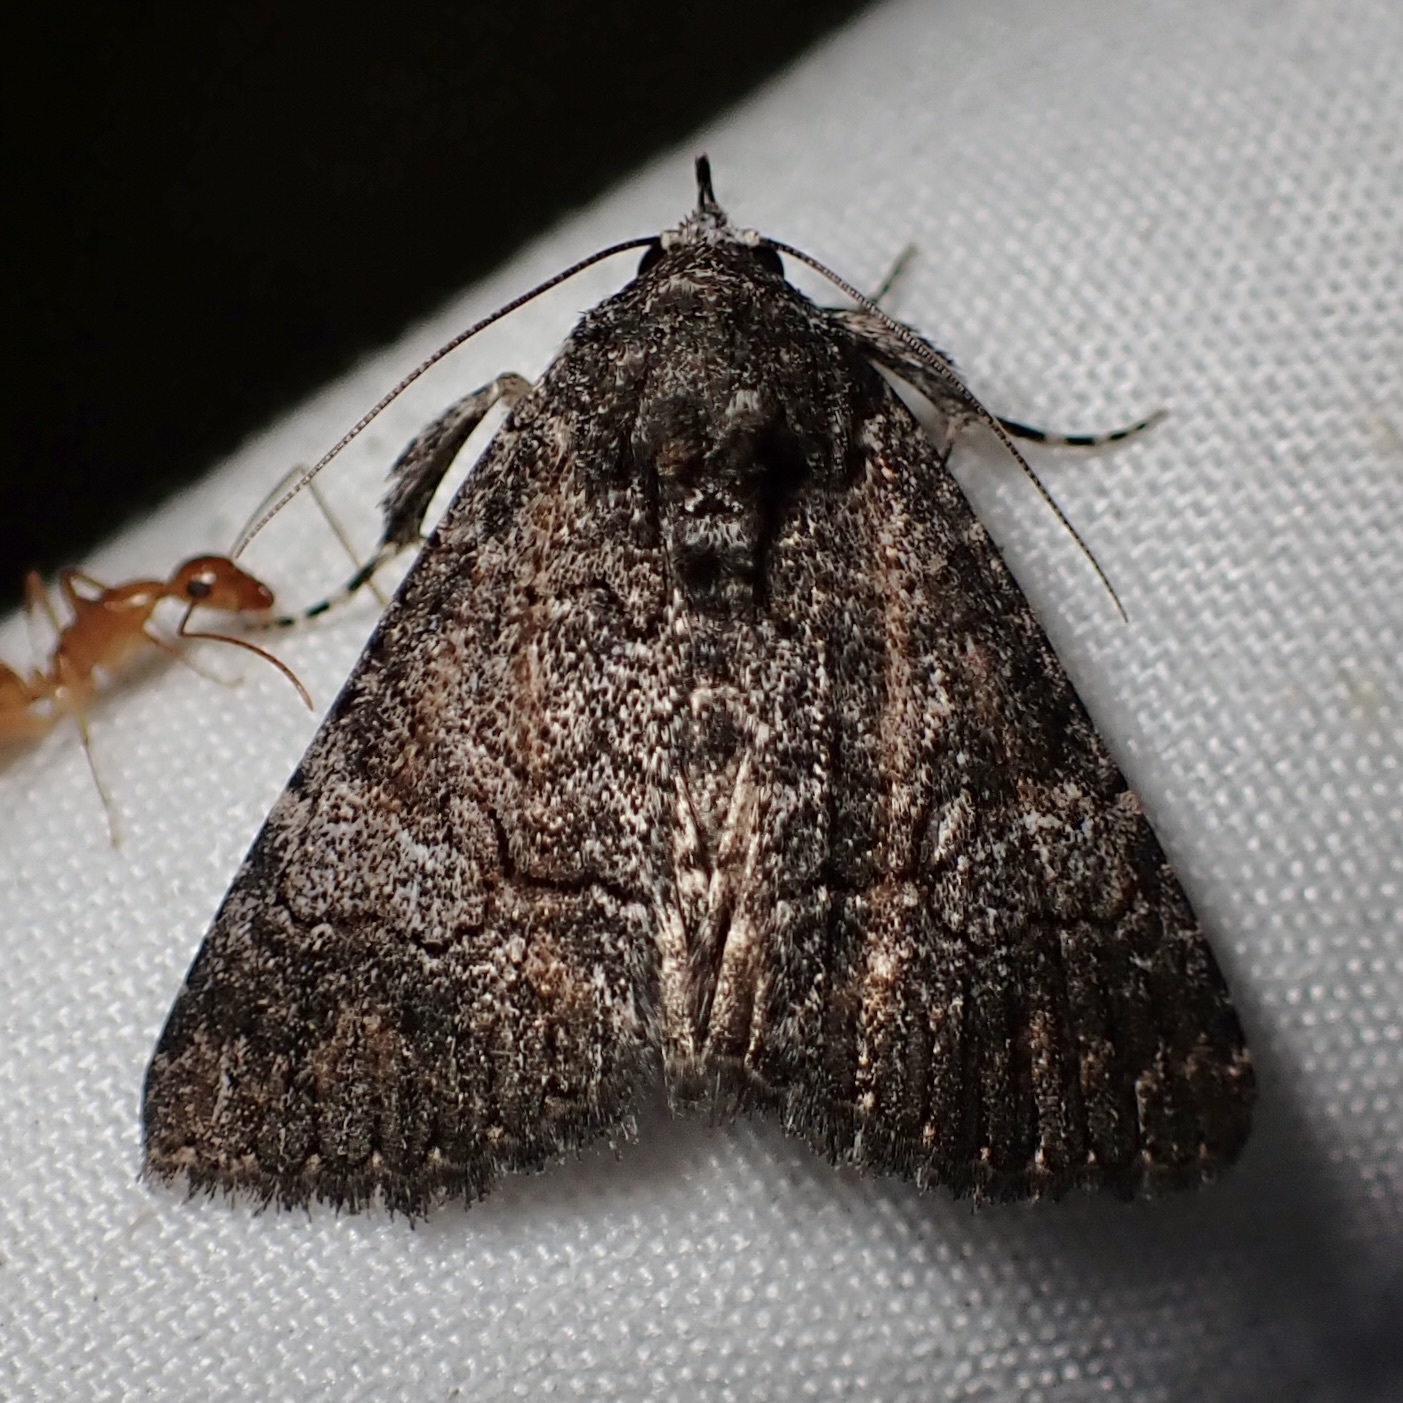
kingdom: Animalia
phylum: Arthropoda
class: Insecta
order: Lepidoptera
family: Erebidae
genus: Elousa
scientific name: Elousa mima
